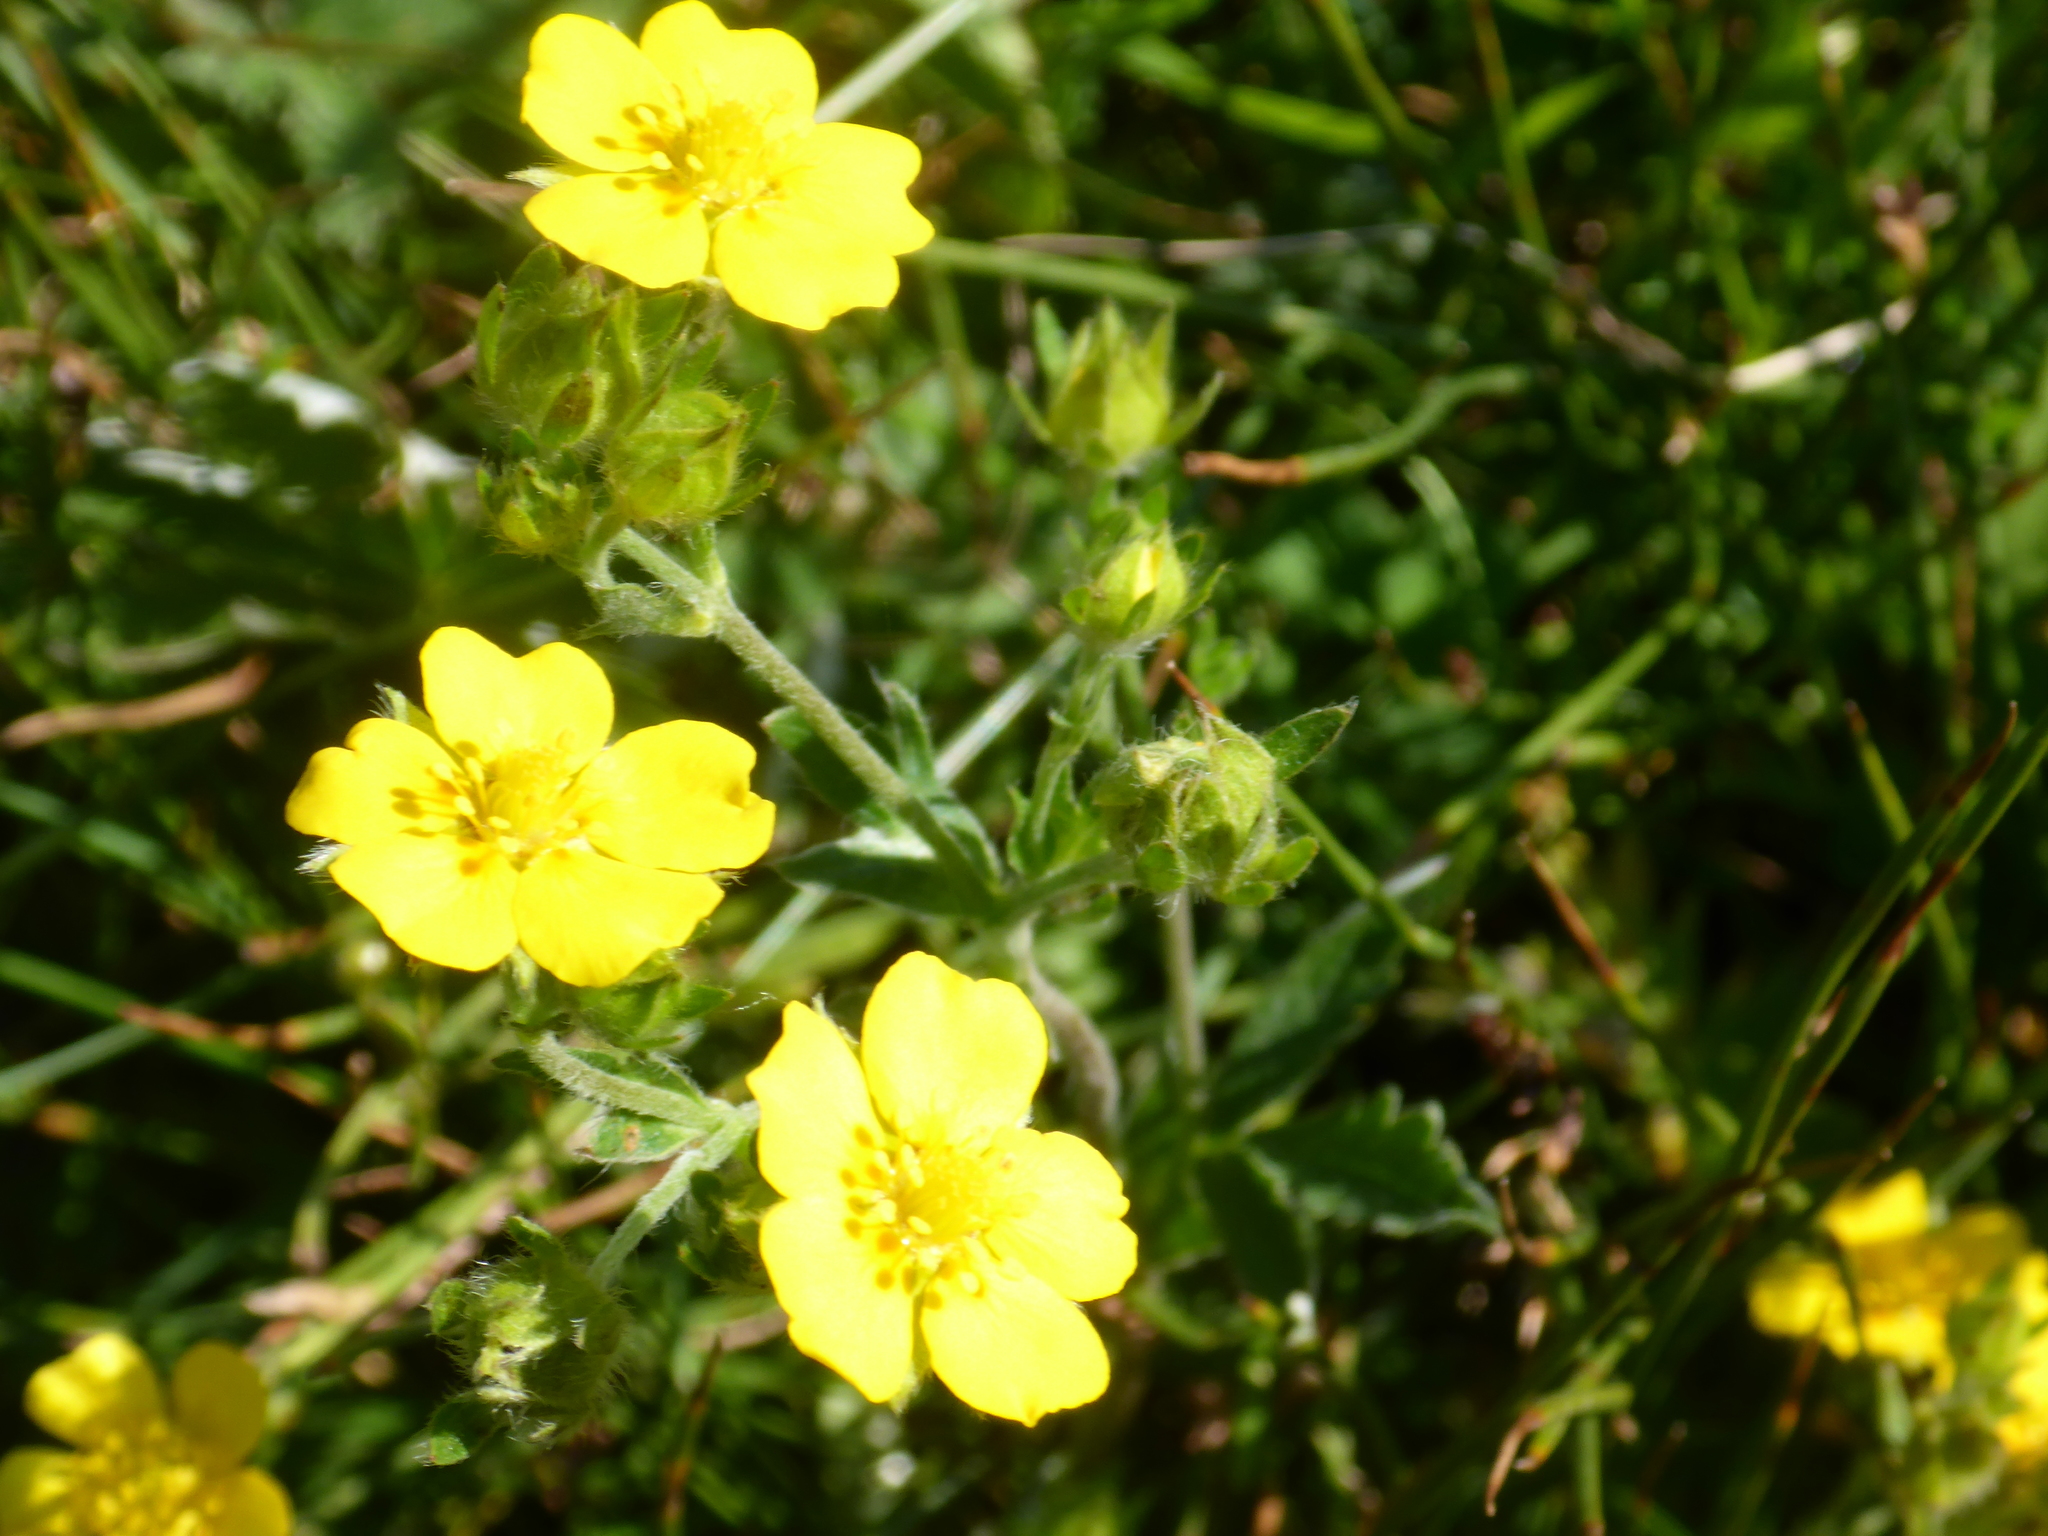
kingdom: Plantae
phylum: Tracheophyta
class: Magnoliopsida
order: Rosales
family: Rosaceae
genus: Potentilla
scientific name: Potentilla pulcherrima
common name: Beautiful cinquefoil
